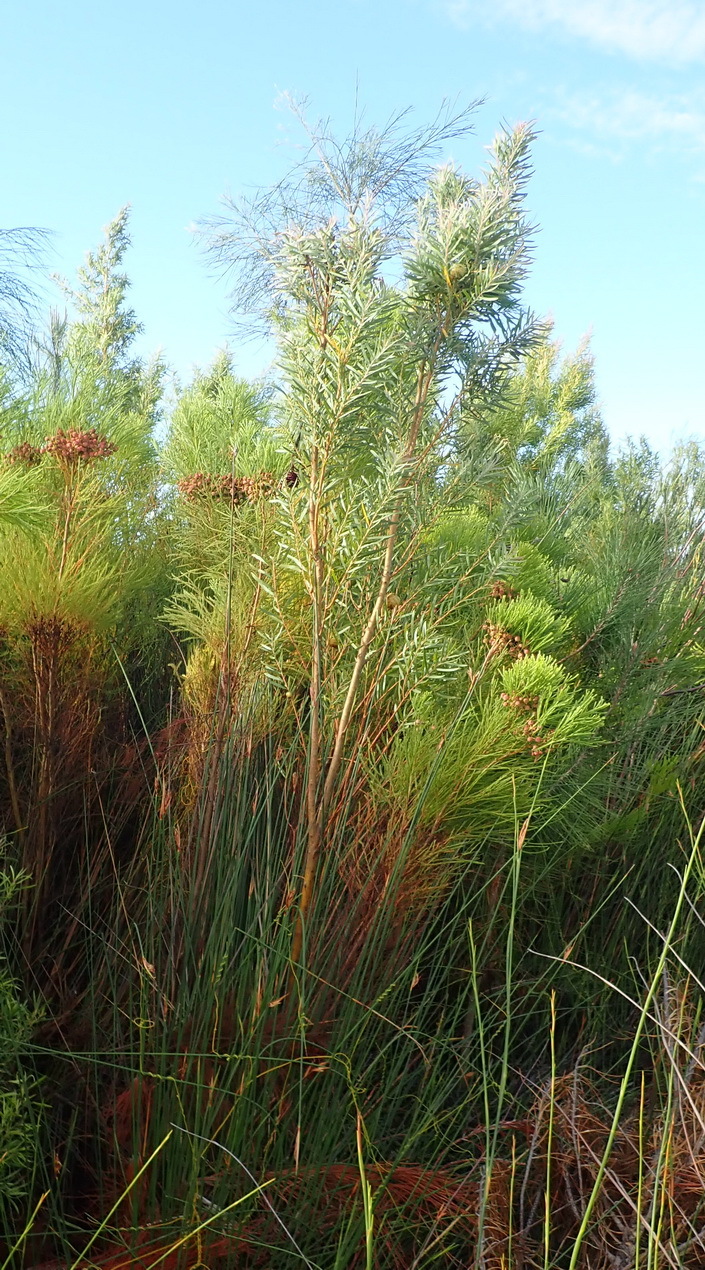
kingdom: Plantae
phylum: Tracheophyta
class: Magnoliopsida
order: Proteales
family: Proteaceae
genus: Leucadendron
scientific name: Leucadendron salicifolium
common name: Common stream conebush
